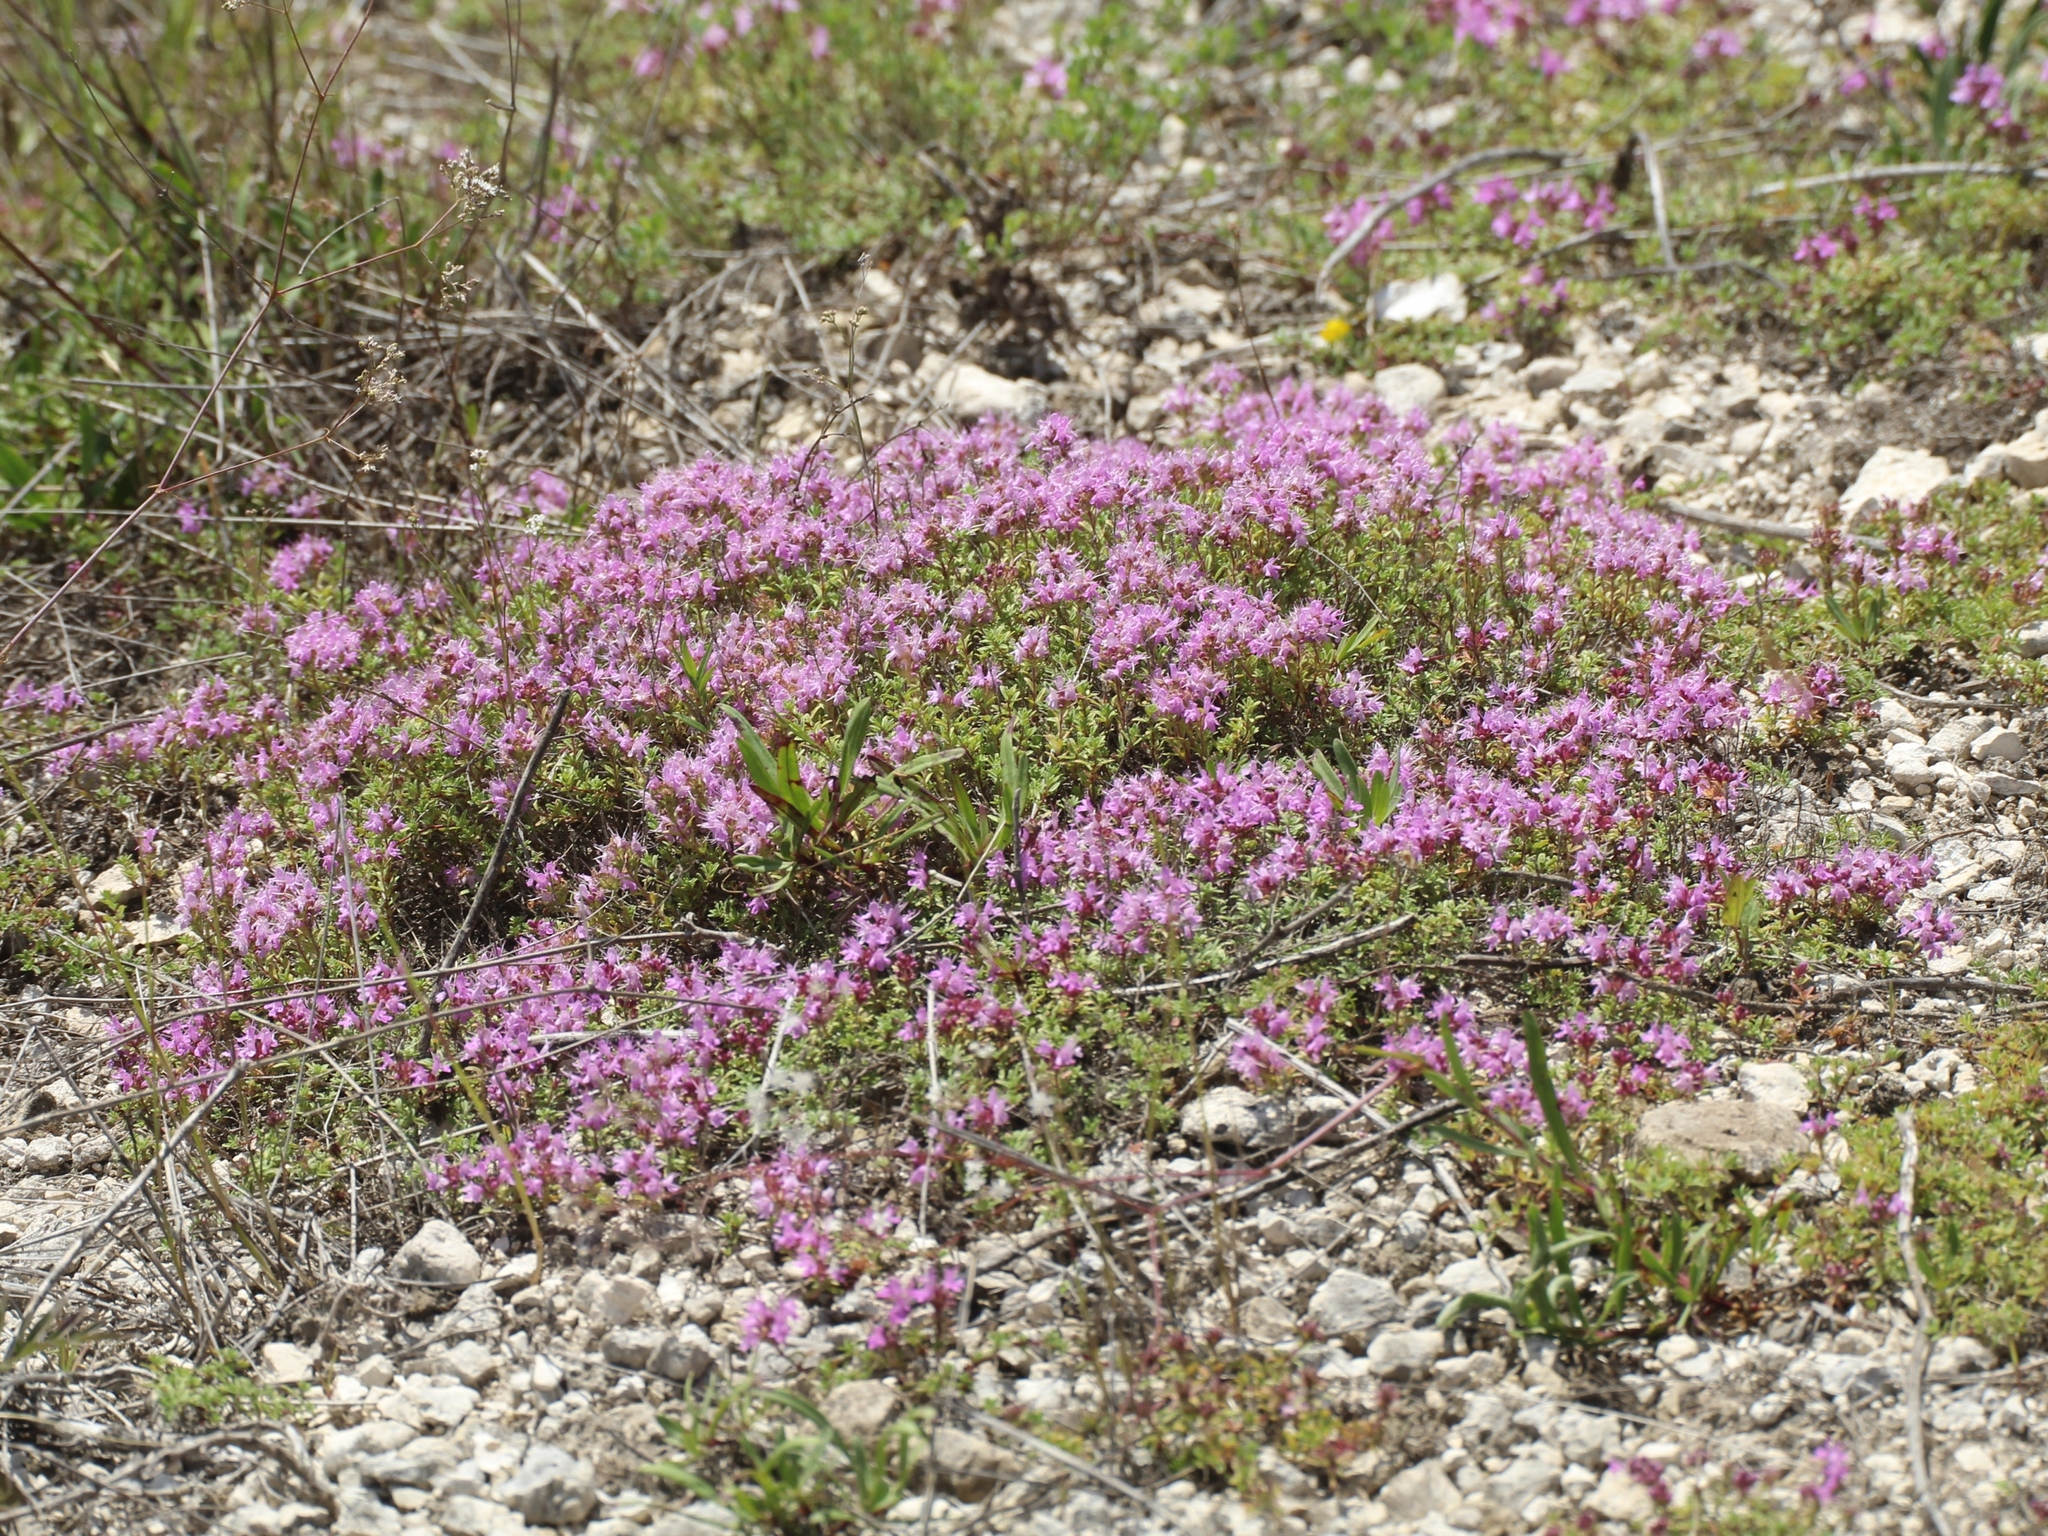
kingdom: Plantae
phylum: Tracheophyta
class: Magnoliopsida
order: Lamiales
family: Lamiaceae
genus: Thymus
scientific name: Thymus calcareus
